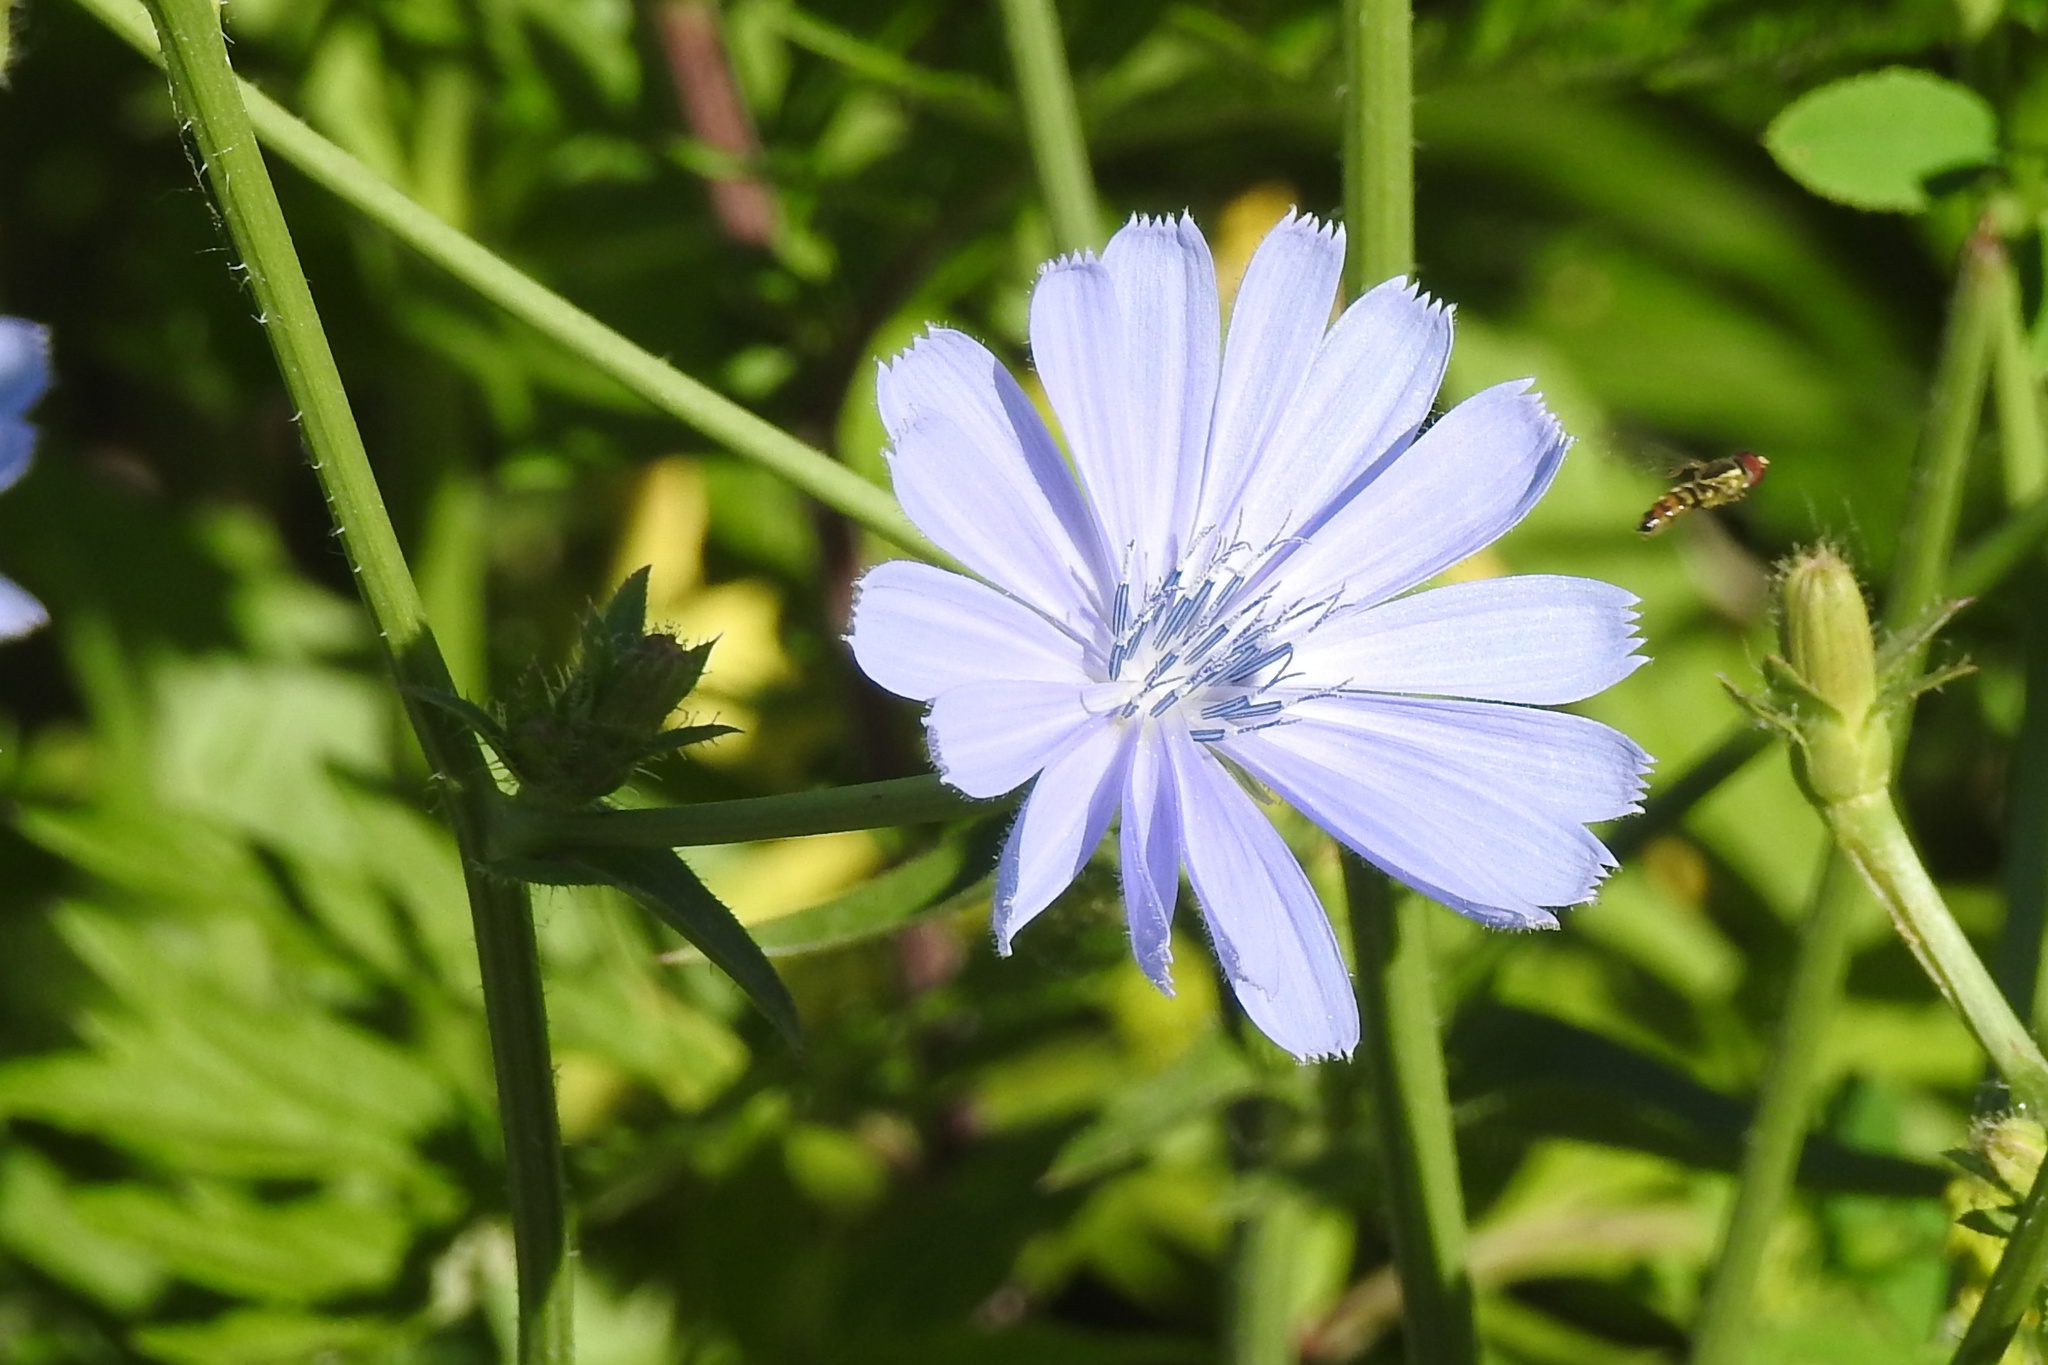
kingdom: Plantae
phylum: Tracheophyta
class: Magnoliopsida
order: Asterales
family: Asteraceae
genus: Cichorium
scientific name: Cichorium intybus
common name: Chicory
